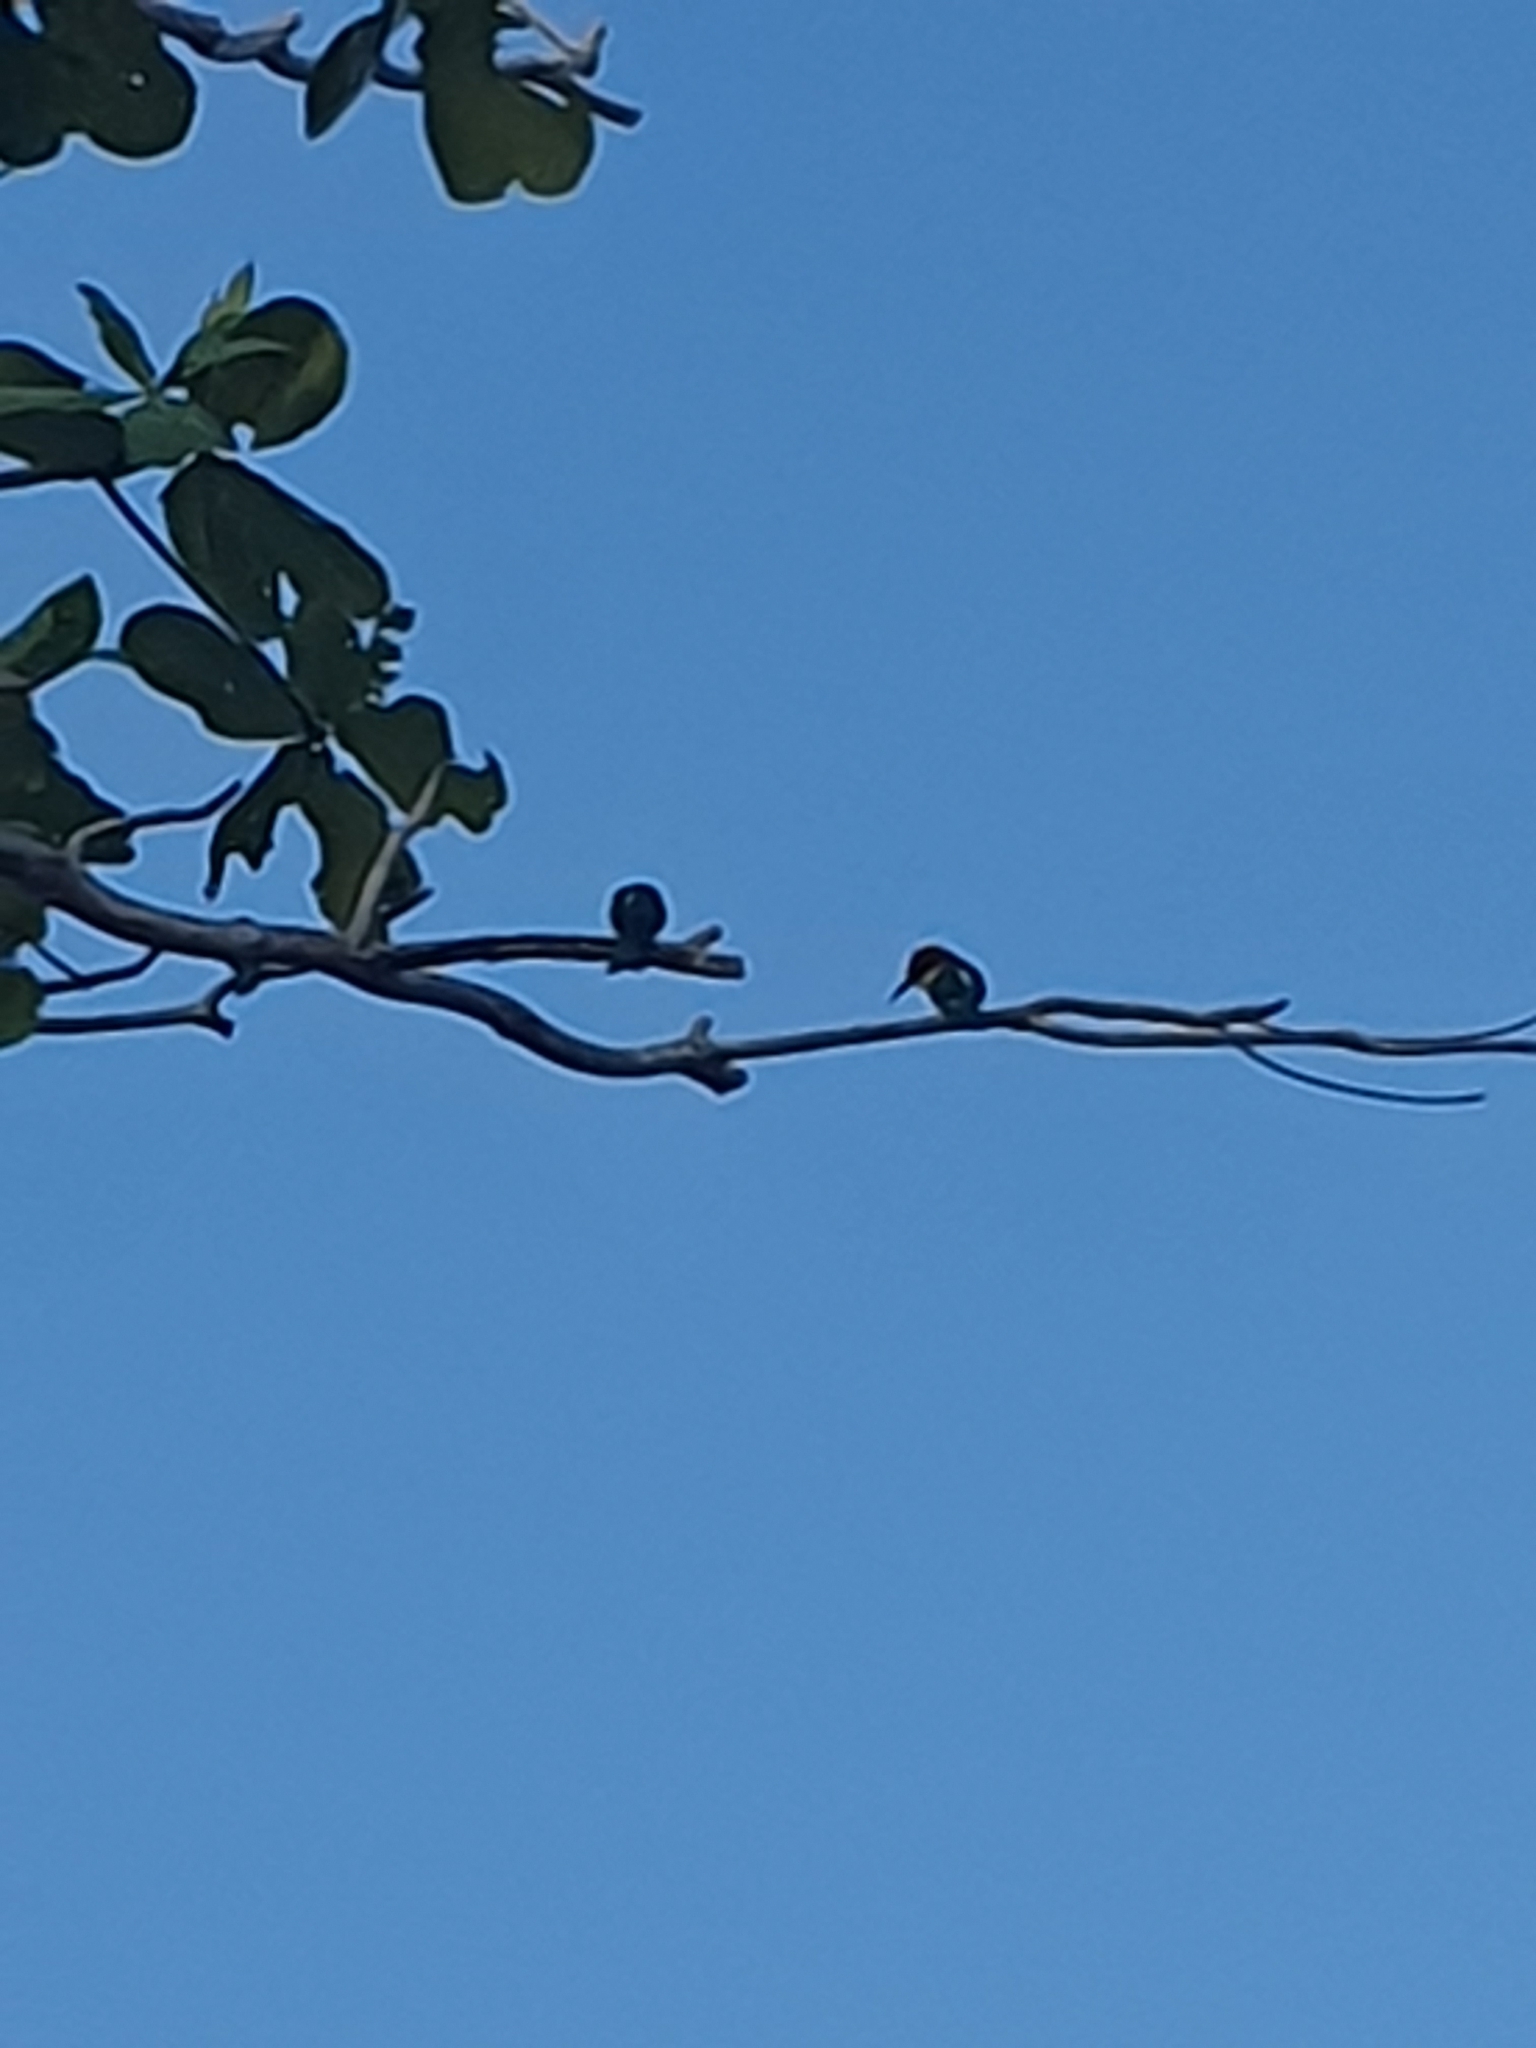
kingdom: Animalia
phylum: Chordata
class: Aves
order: Coraciiformes
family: Meropidae
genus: Merops
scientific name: Merops leschenaulti
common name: Chestnut-headed bee-eater
